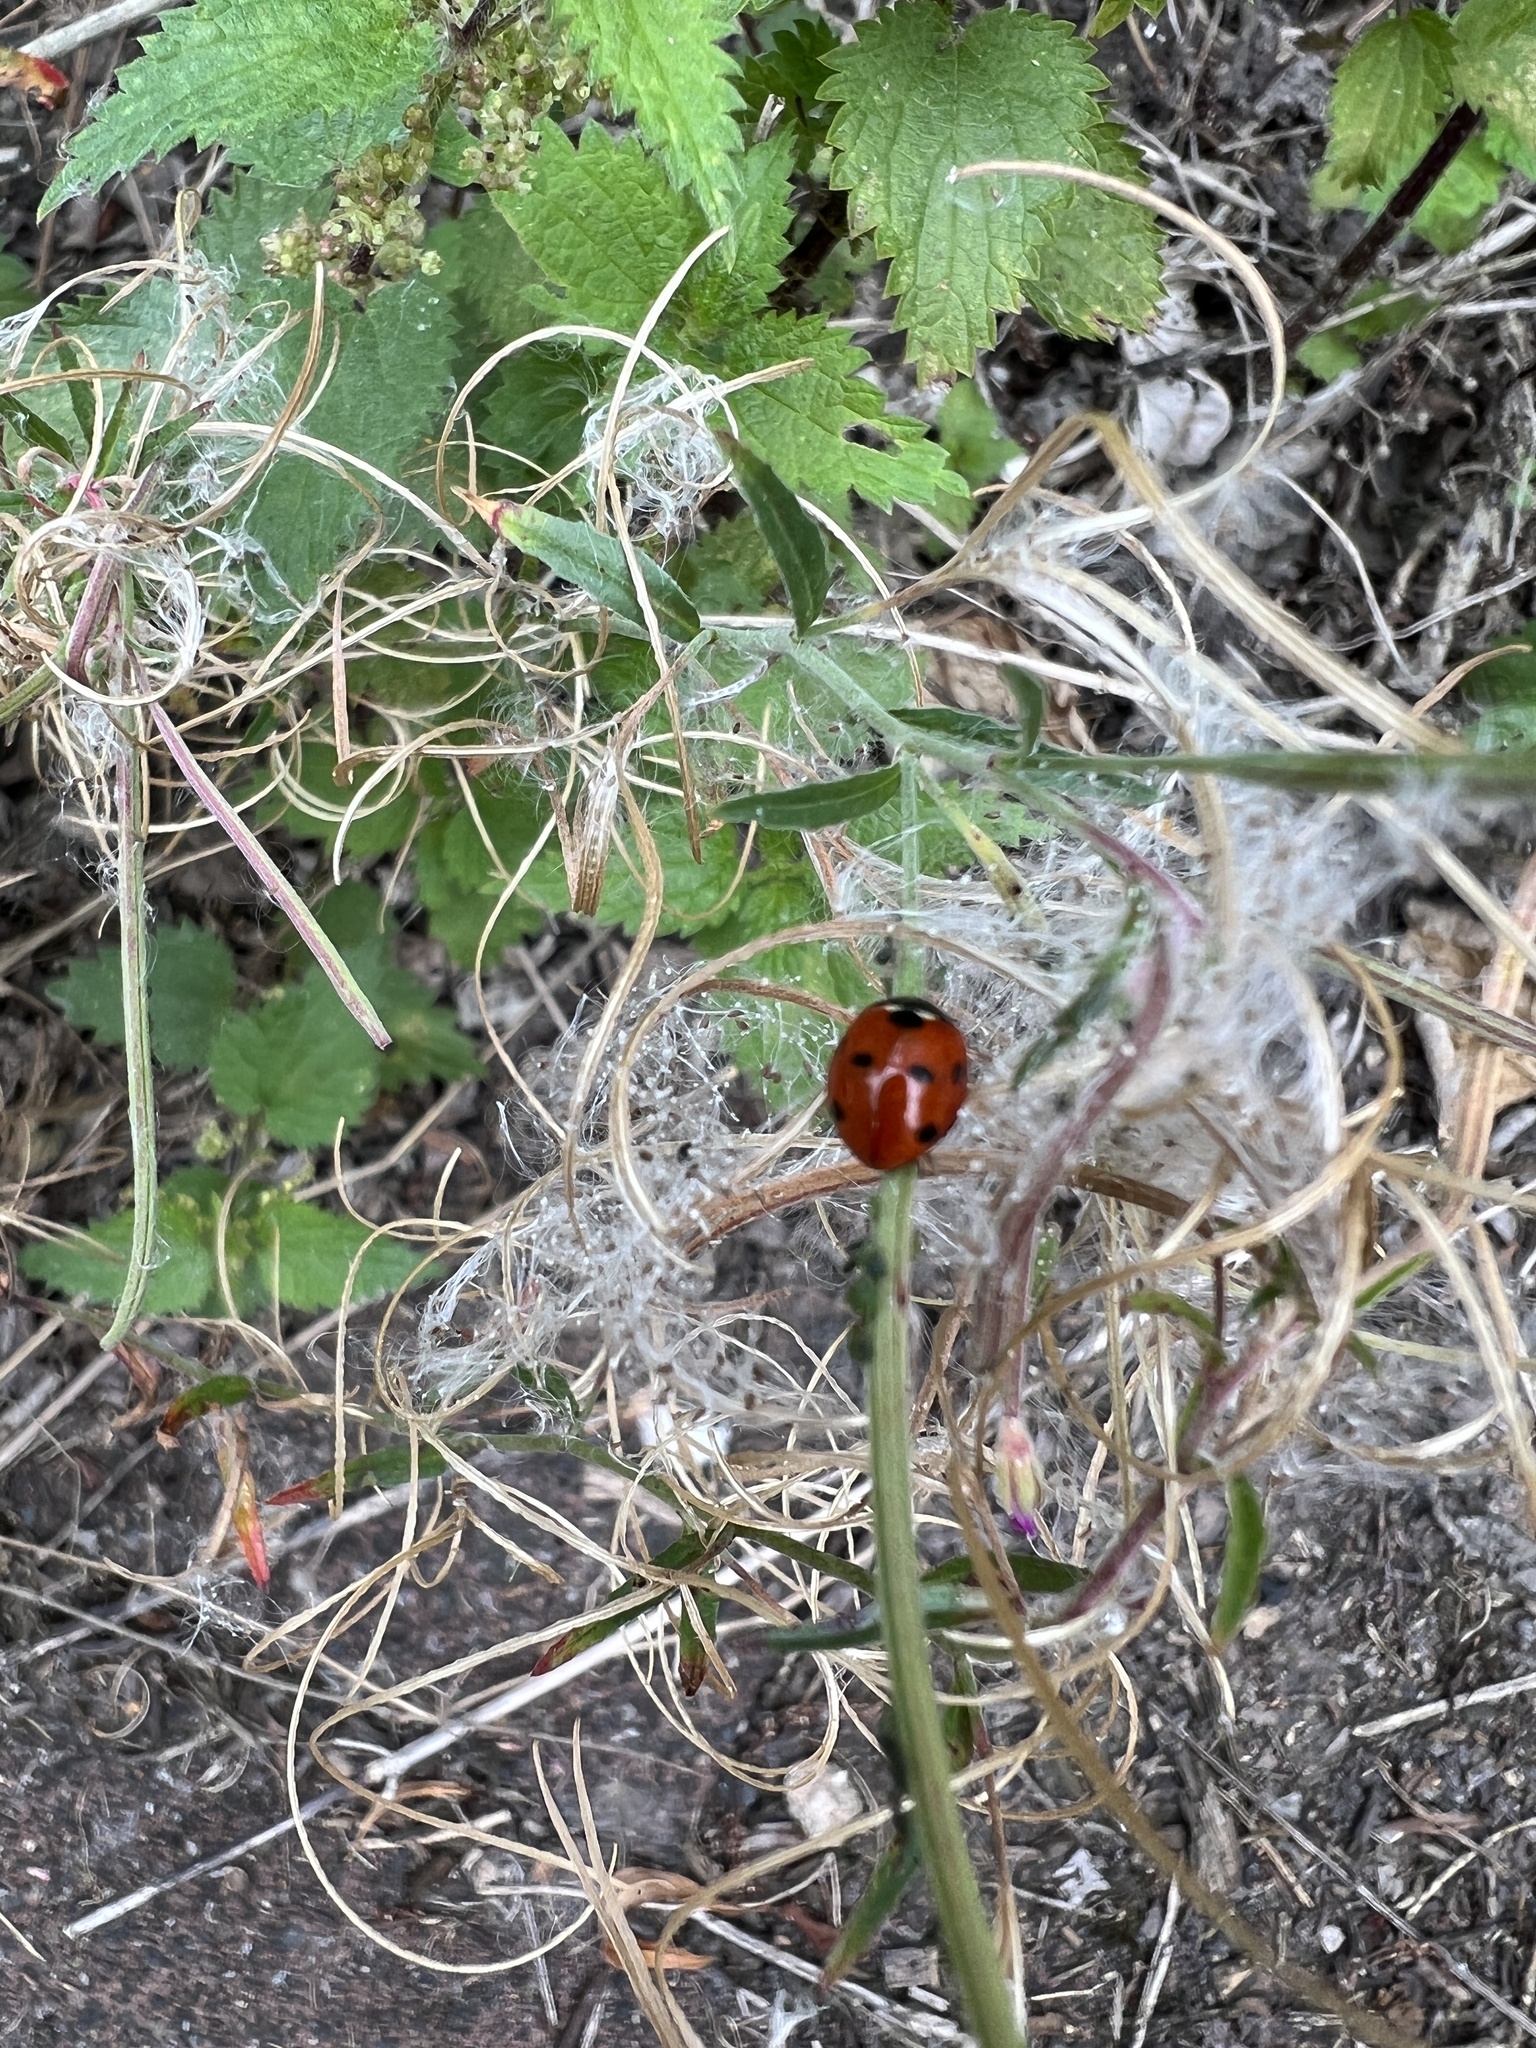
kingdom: Animalia
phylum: Arthropoda
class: Insecta
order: Coleoptera
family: Coccinellidae
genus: Coccinella
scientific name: Coccinella septempunctata
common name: Sevenspotted lady beetle
